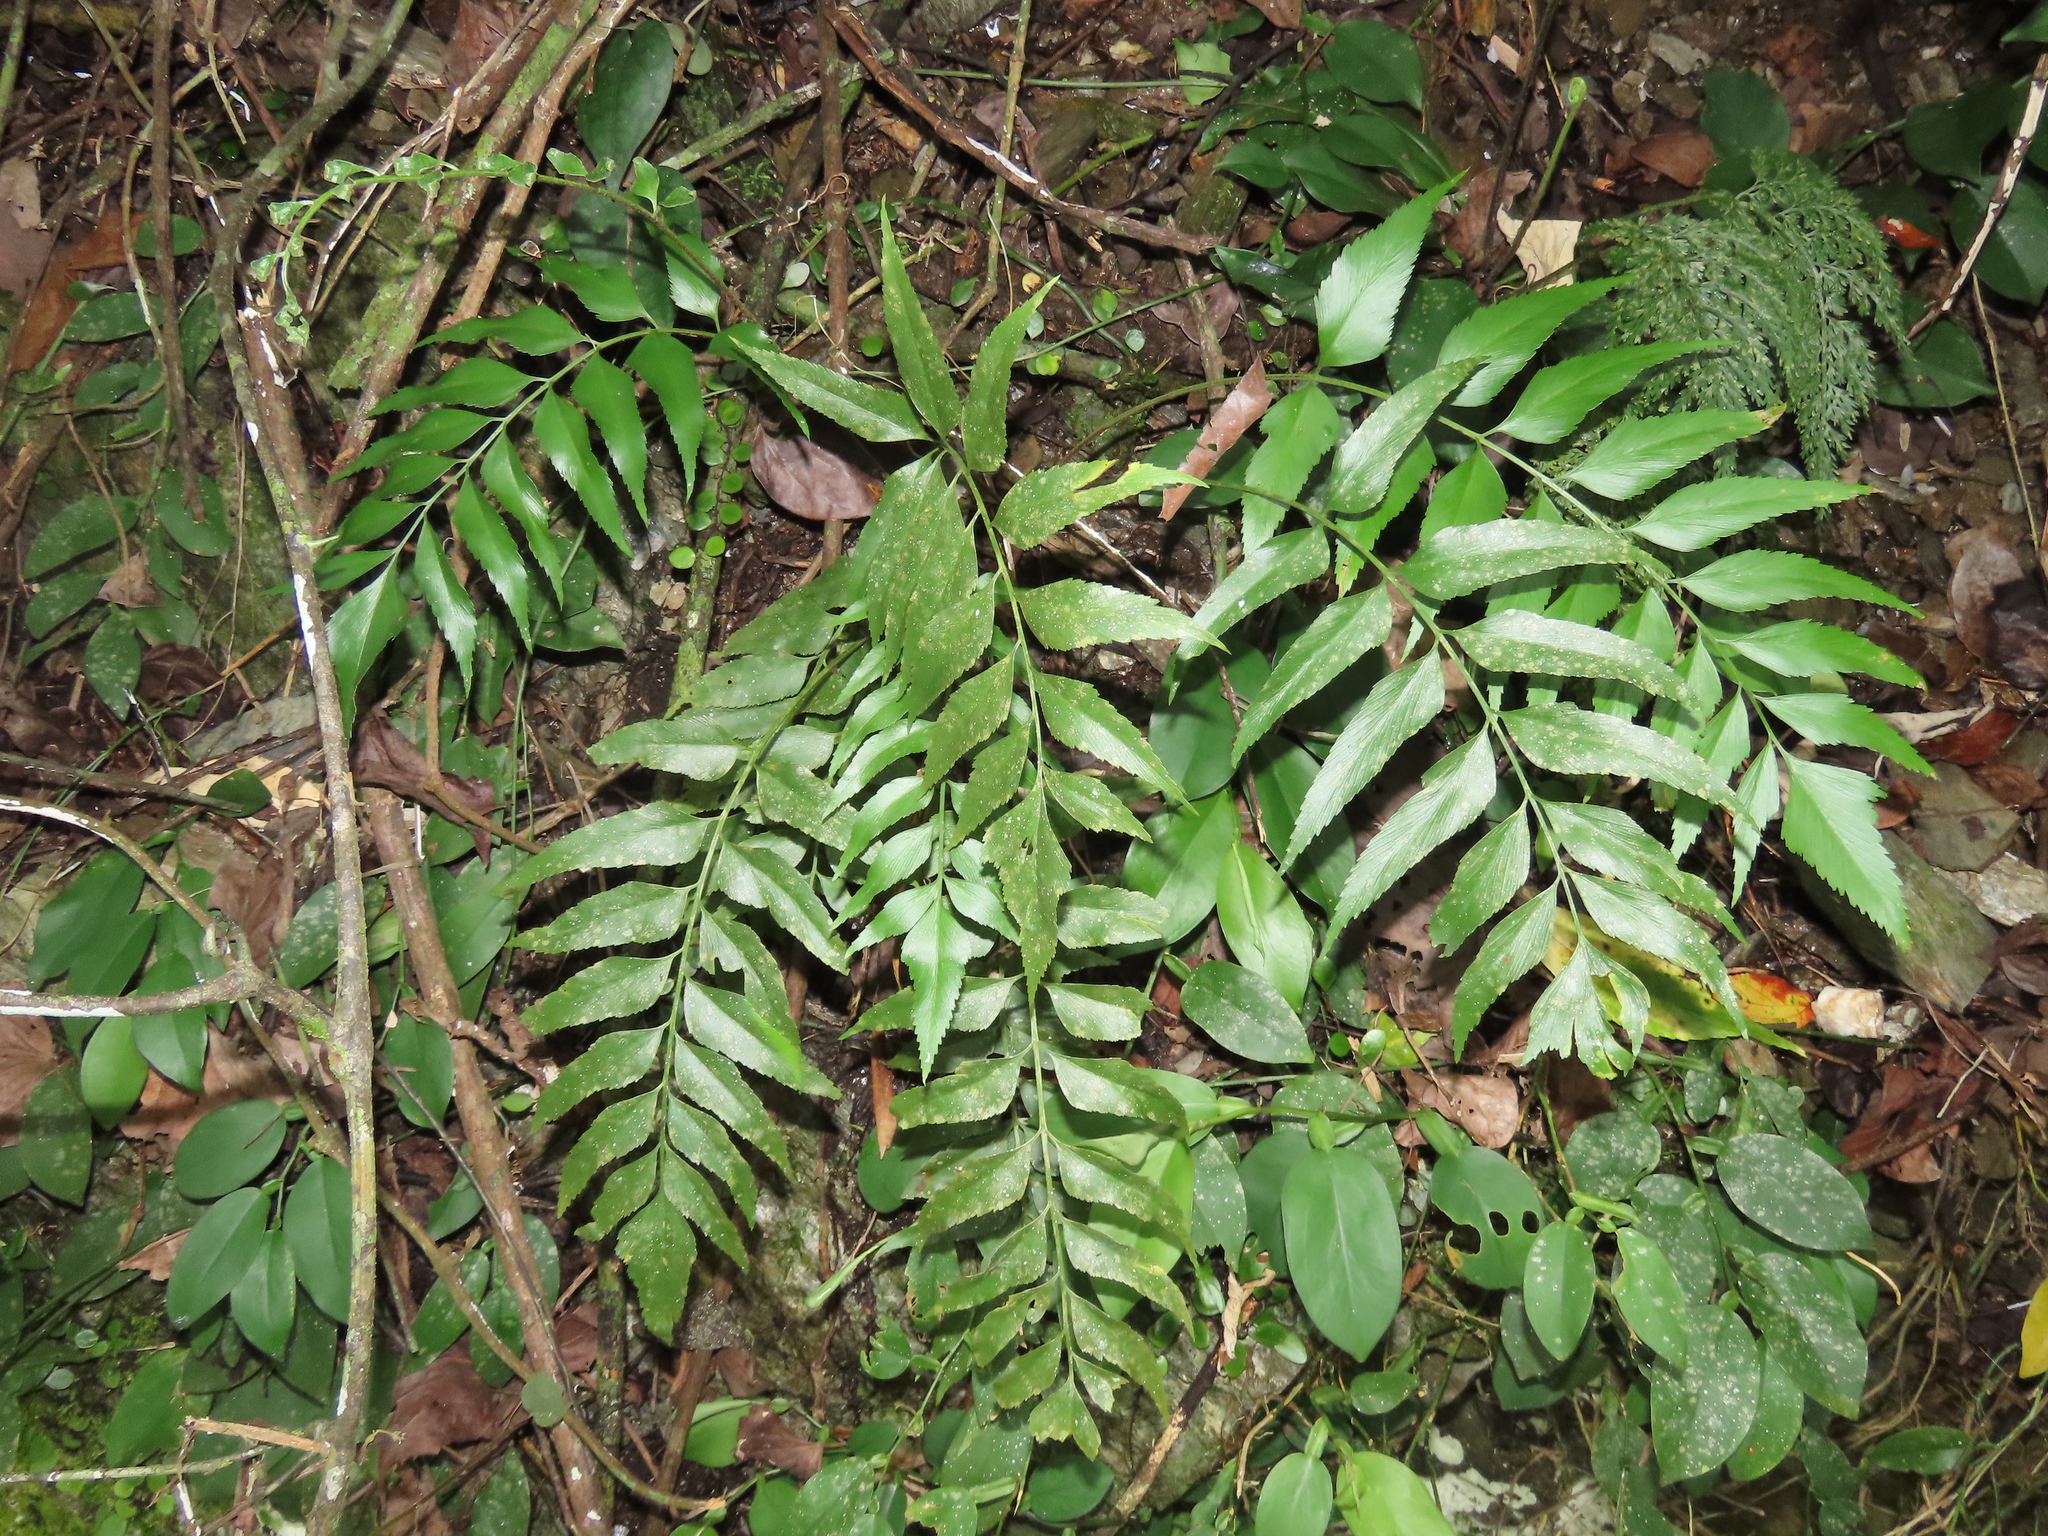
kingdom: Plantae
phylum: Tracheophyta
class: Polypodiopsida
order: Polypodiales
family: Aspleniaceae
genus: Asplenium
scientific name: Asplenium falcatum
